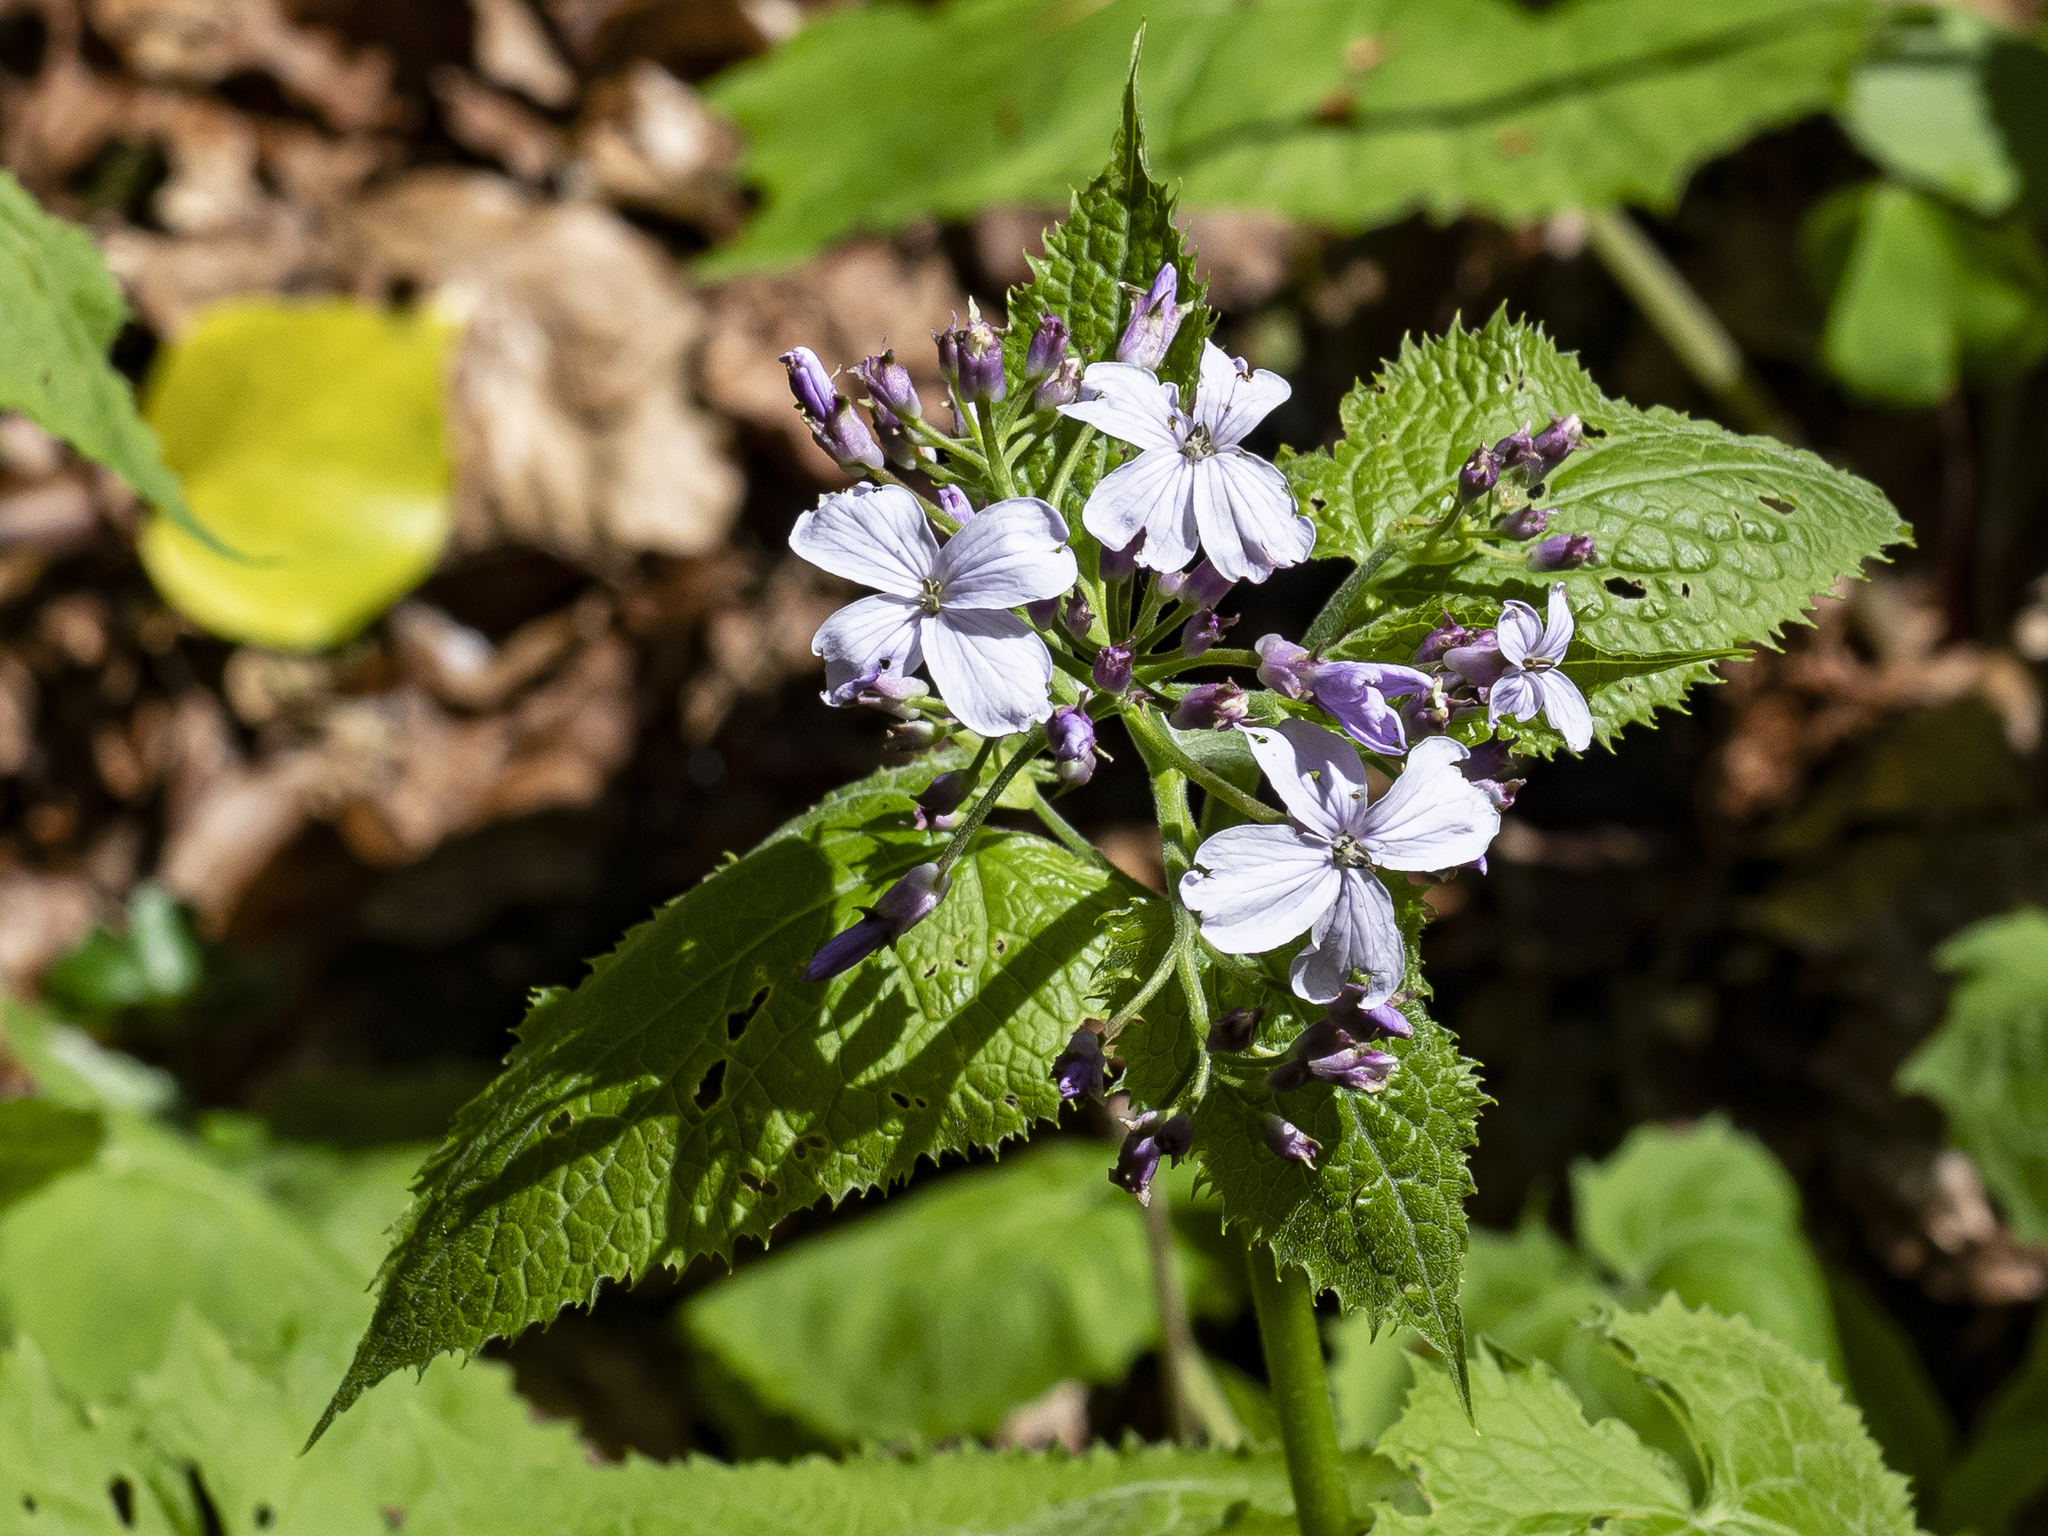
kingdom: Plantae
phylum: Tracheophyta
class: Magnoliopsida
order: Brassicales
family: Brassicaceae
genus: Lunaria
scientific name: Lunaria rediviva
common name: Perennial honesty
